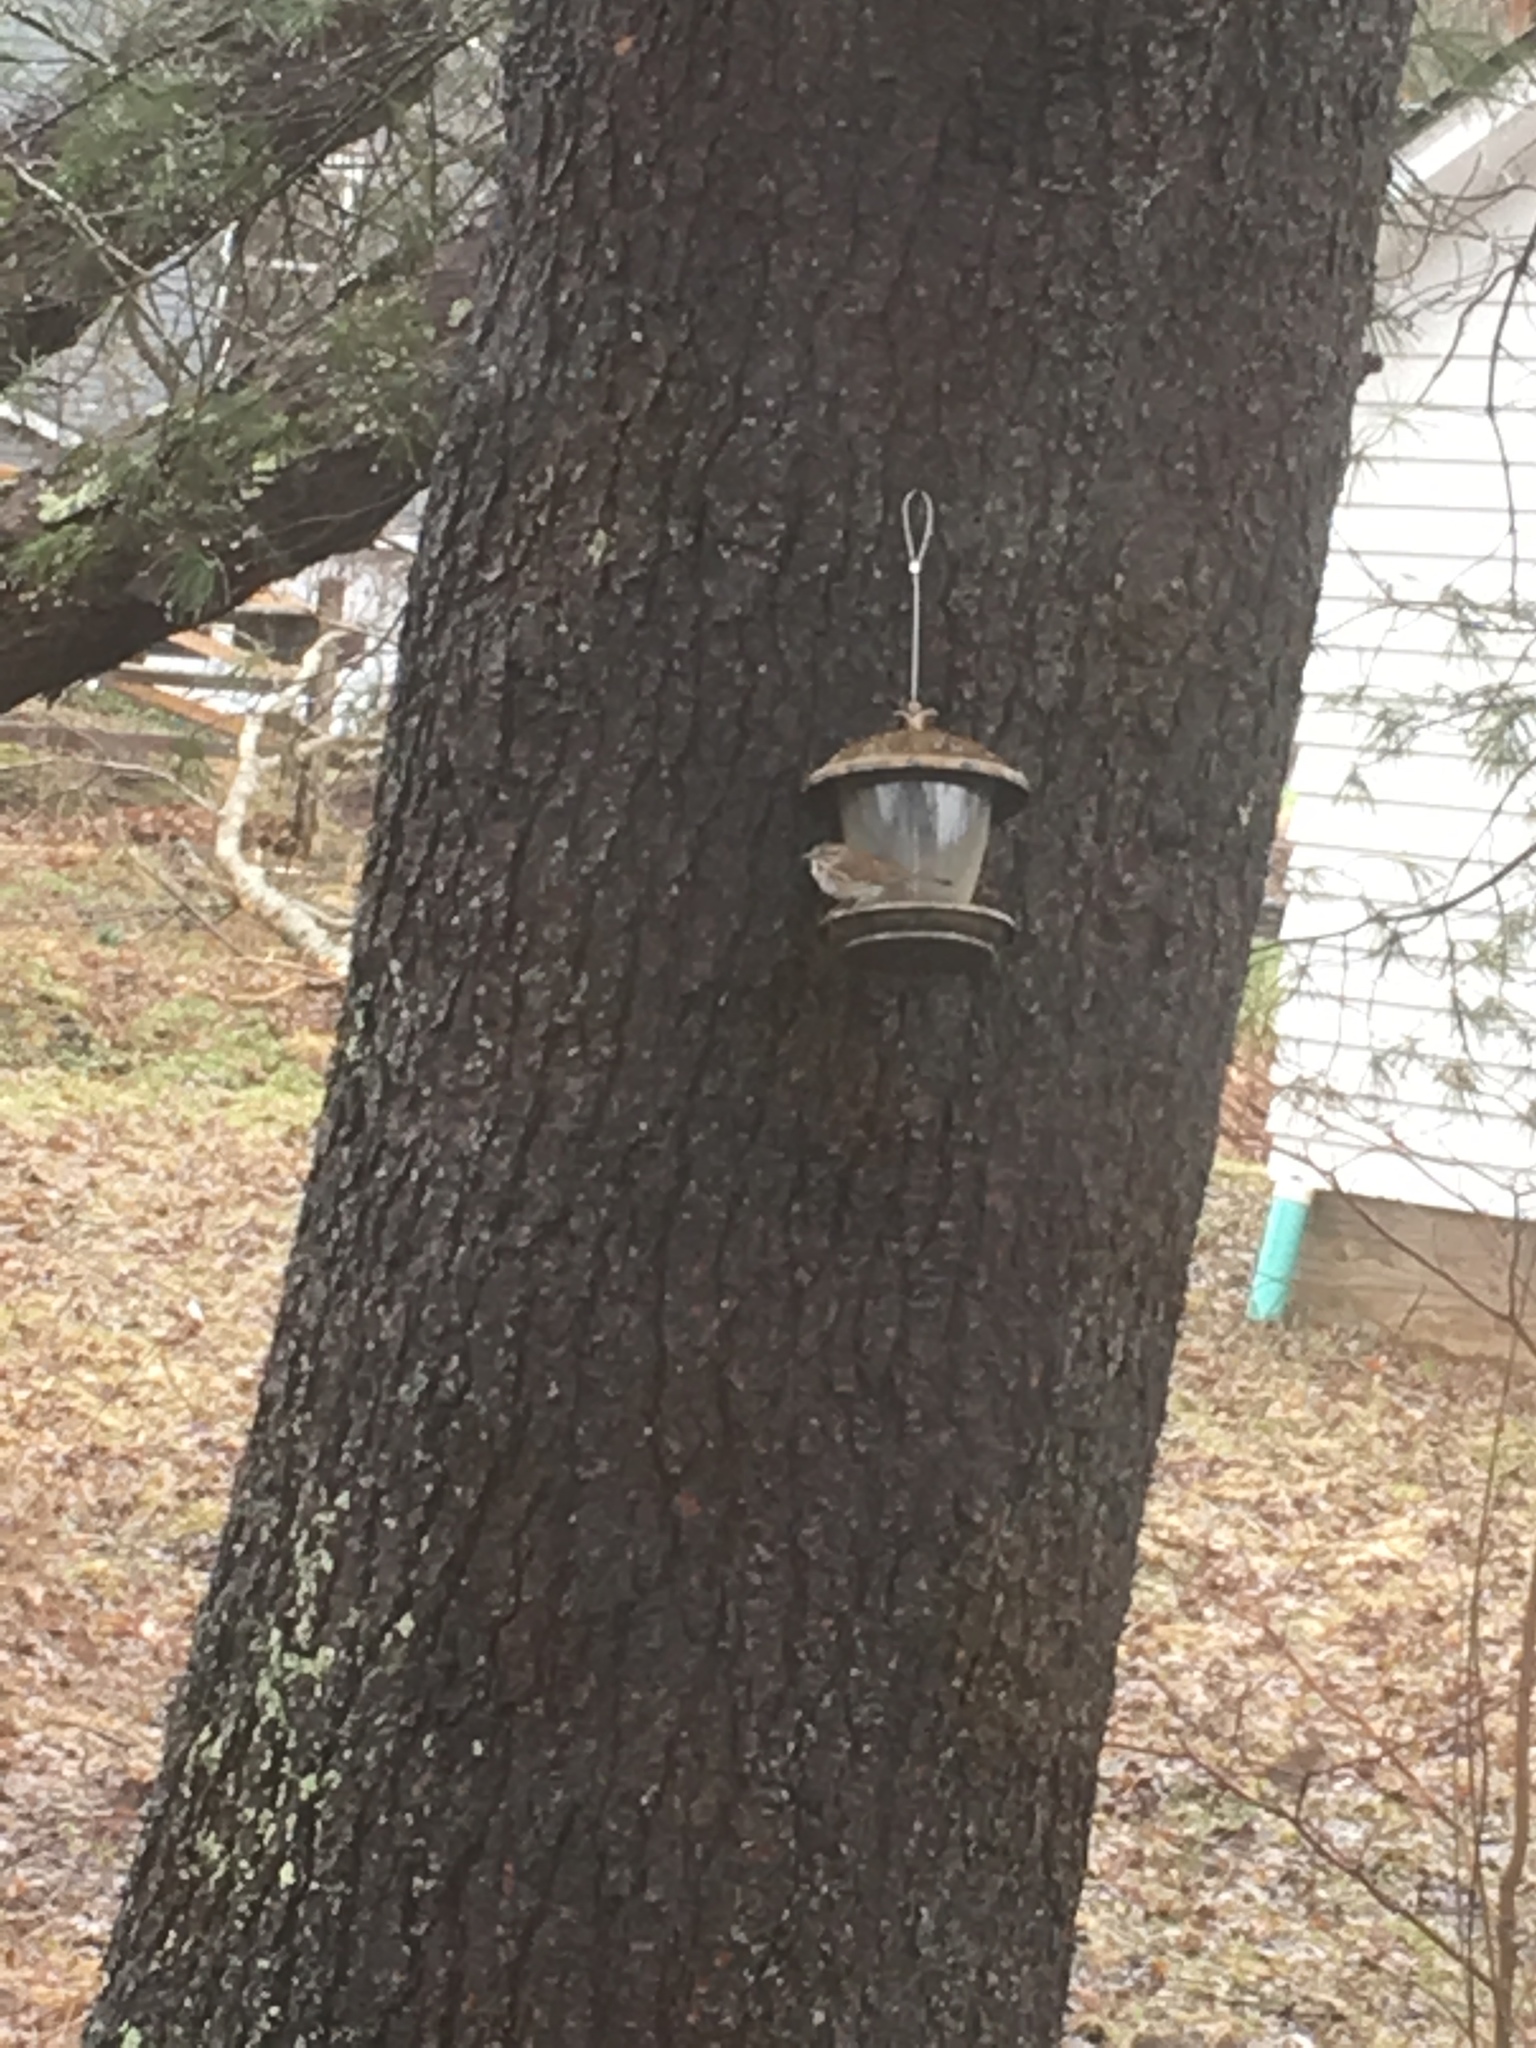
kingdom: Animalia
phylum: Chordata
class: Aves
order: Passeriformes
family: Passerellidae
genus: Melospiza
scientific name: Melospiza melodia
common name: Song sparrow
